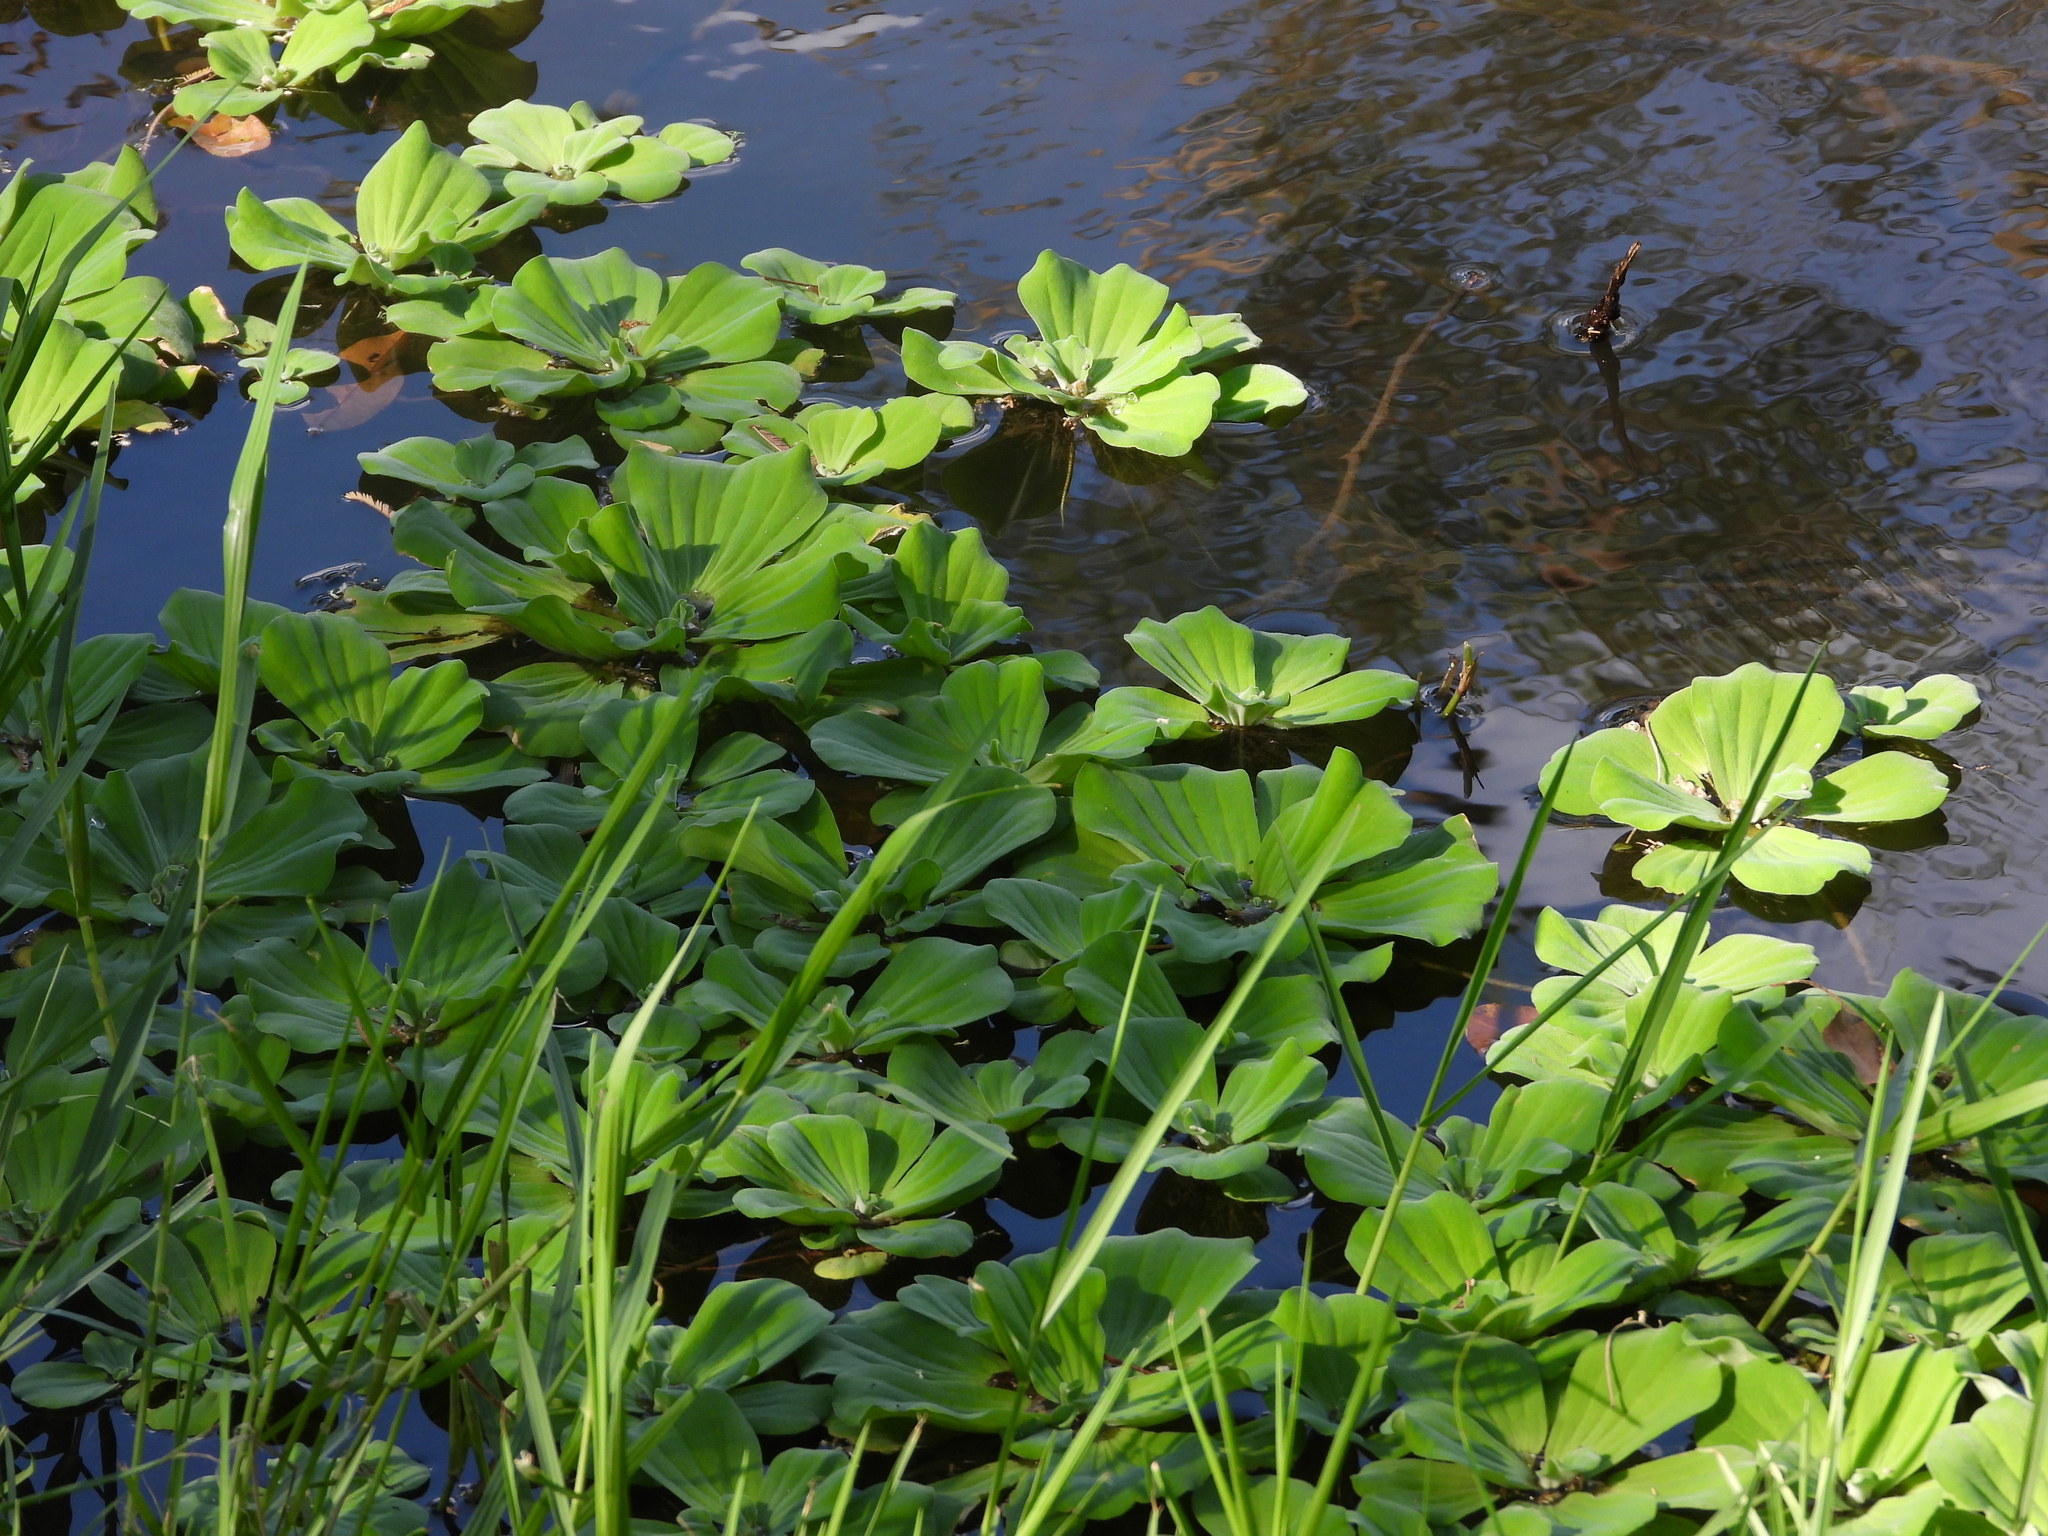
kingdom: Plantae
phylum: Tracheophyta
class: Liliopsida
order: Alismatales
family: Araceae
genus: Pistia
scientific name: Pistia stratiotes
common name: Water lettuce
